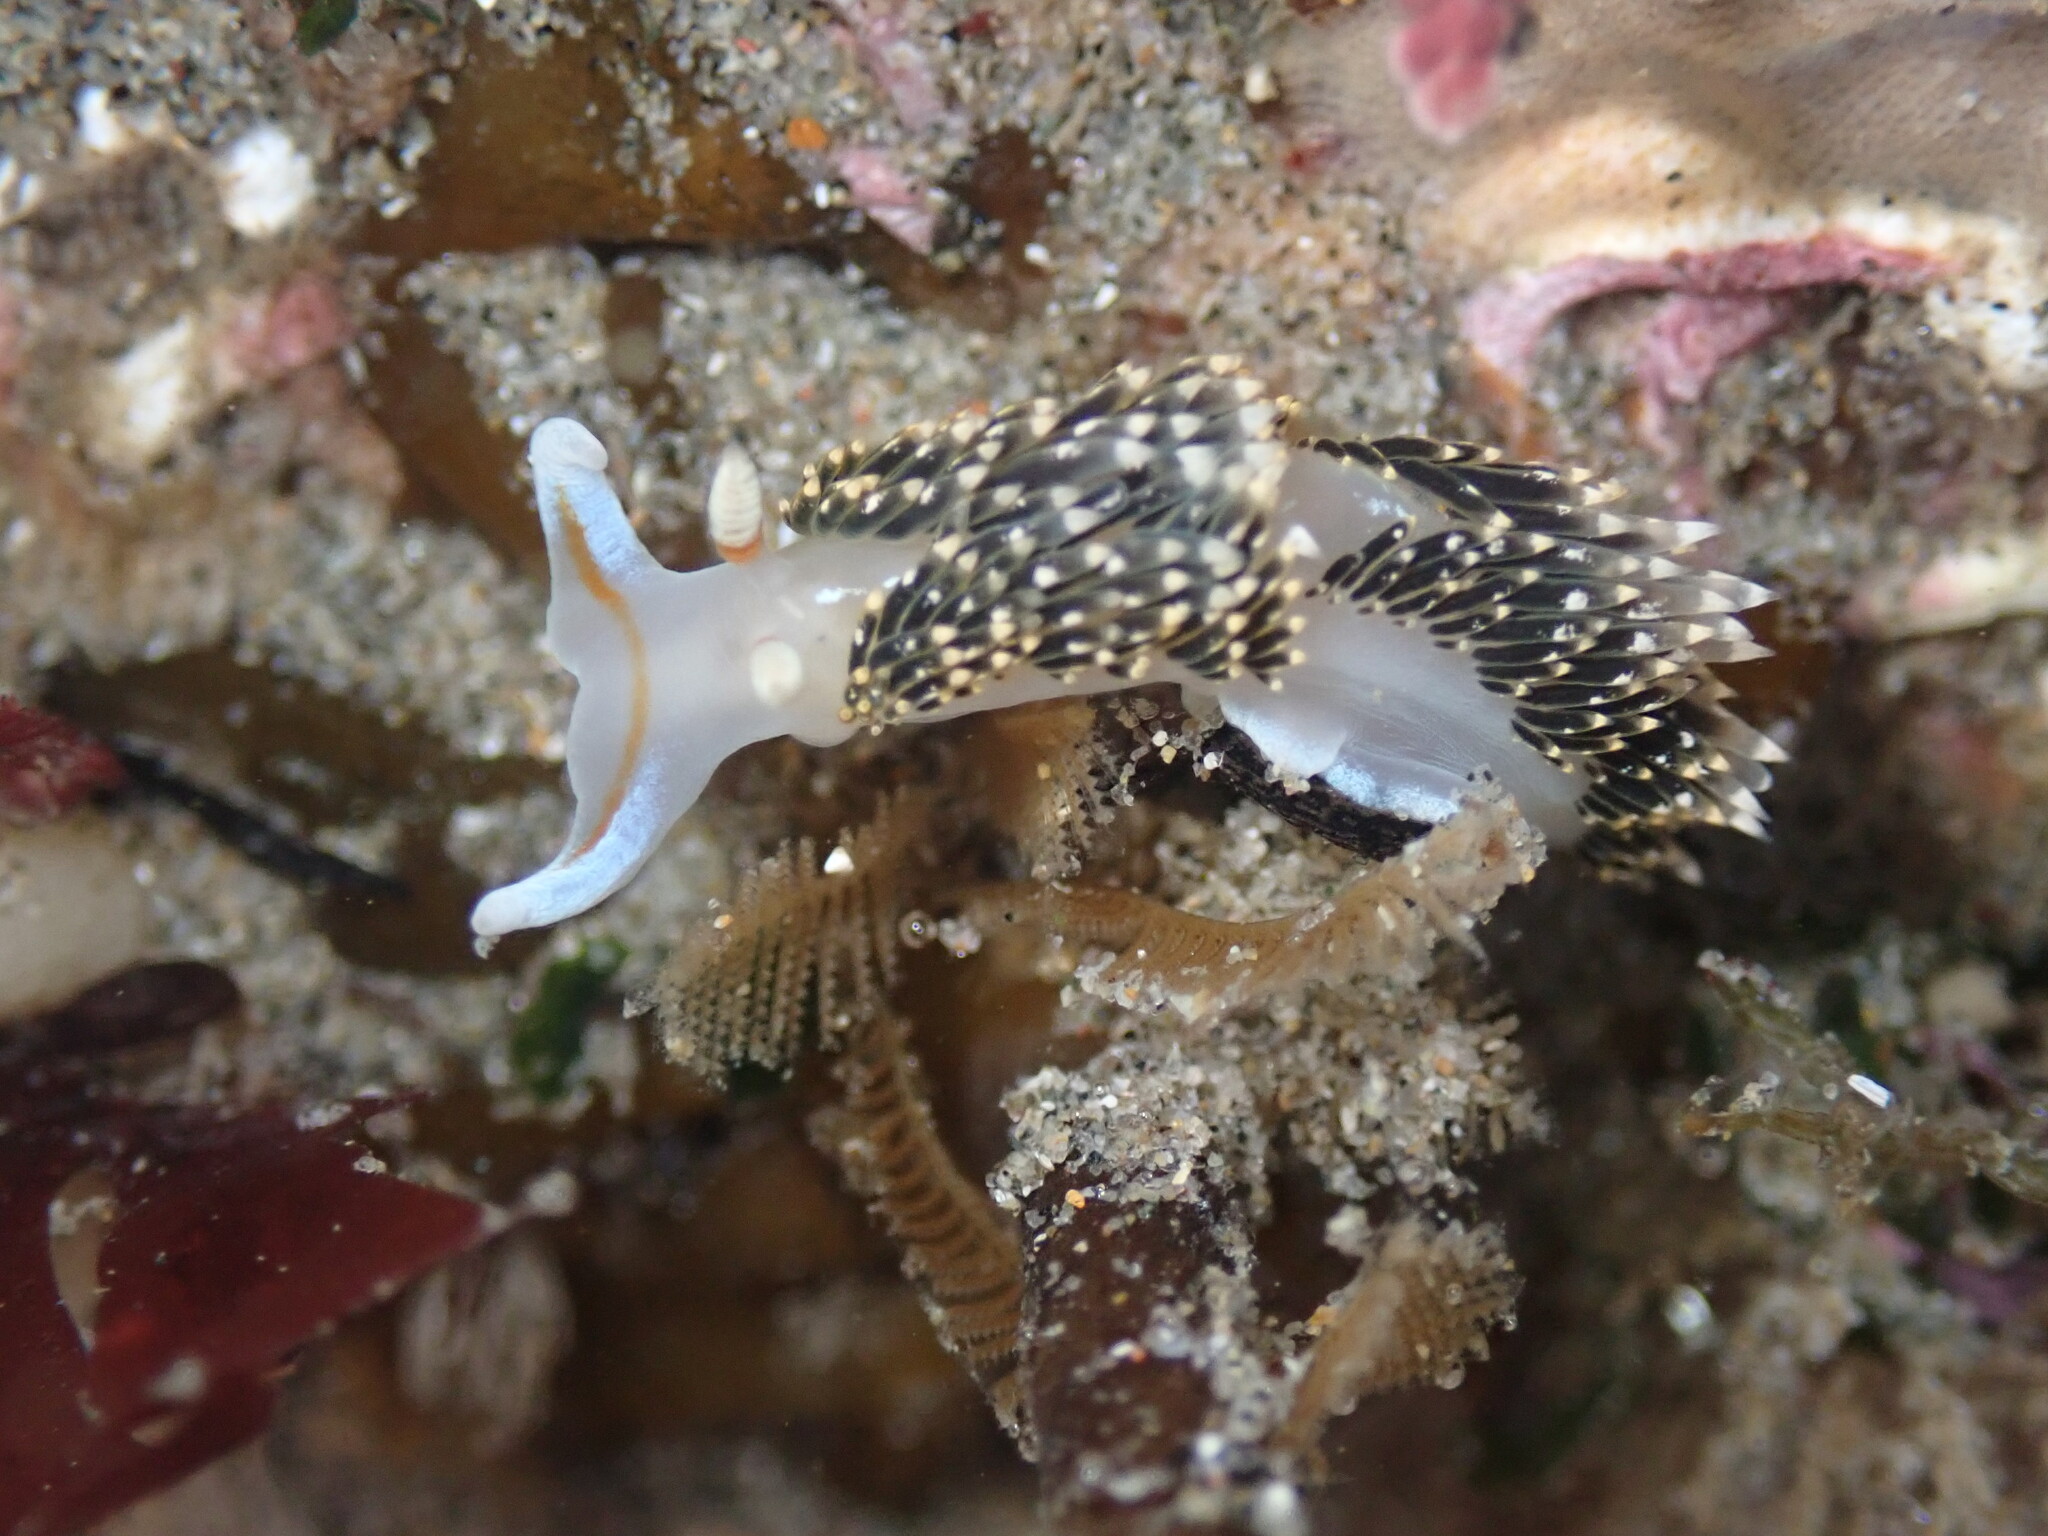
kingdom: Animalia
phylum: Mollusca
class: Gastropoda
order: Nudibranchia
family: Facelinidae
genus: Phidiana
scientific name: Phidiana hiltoni
